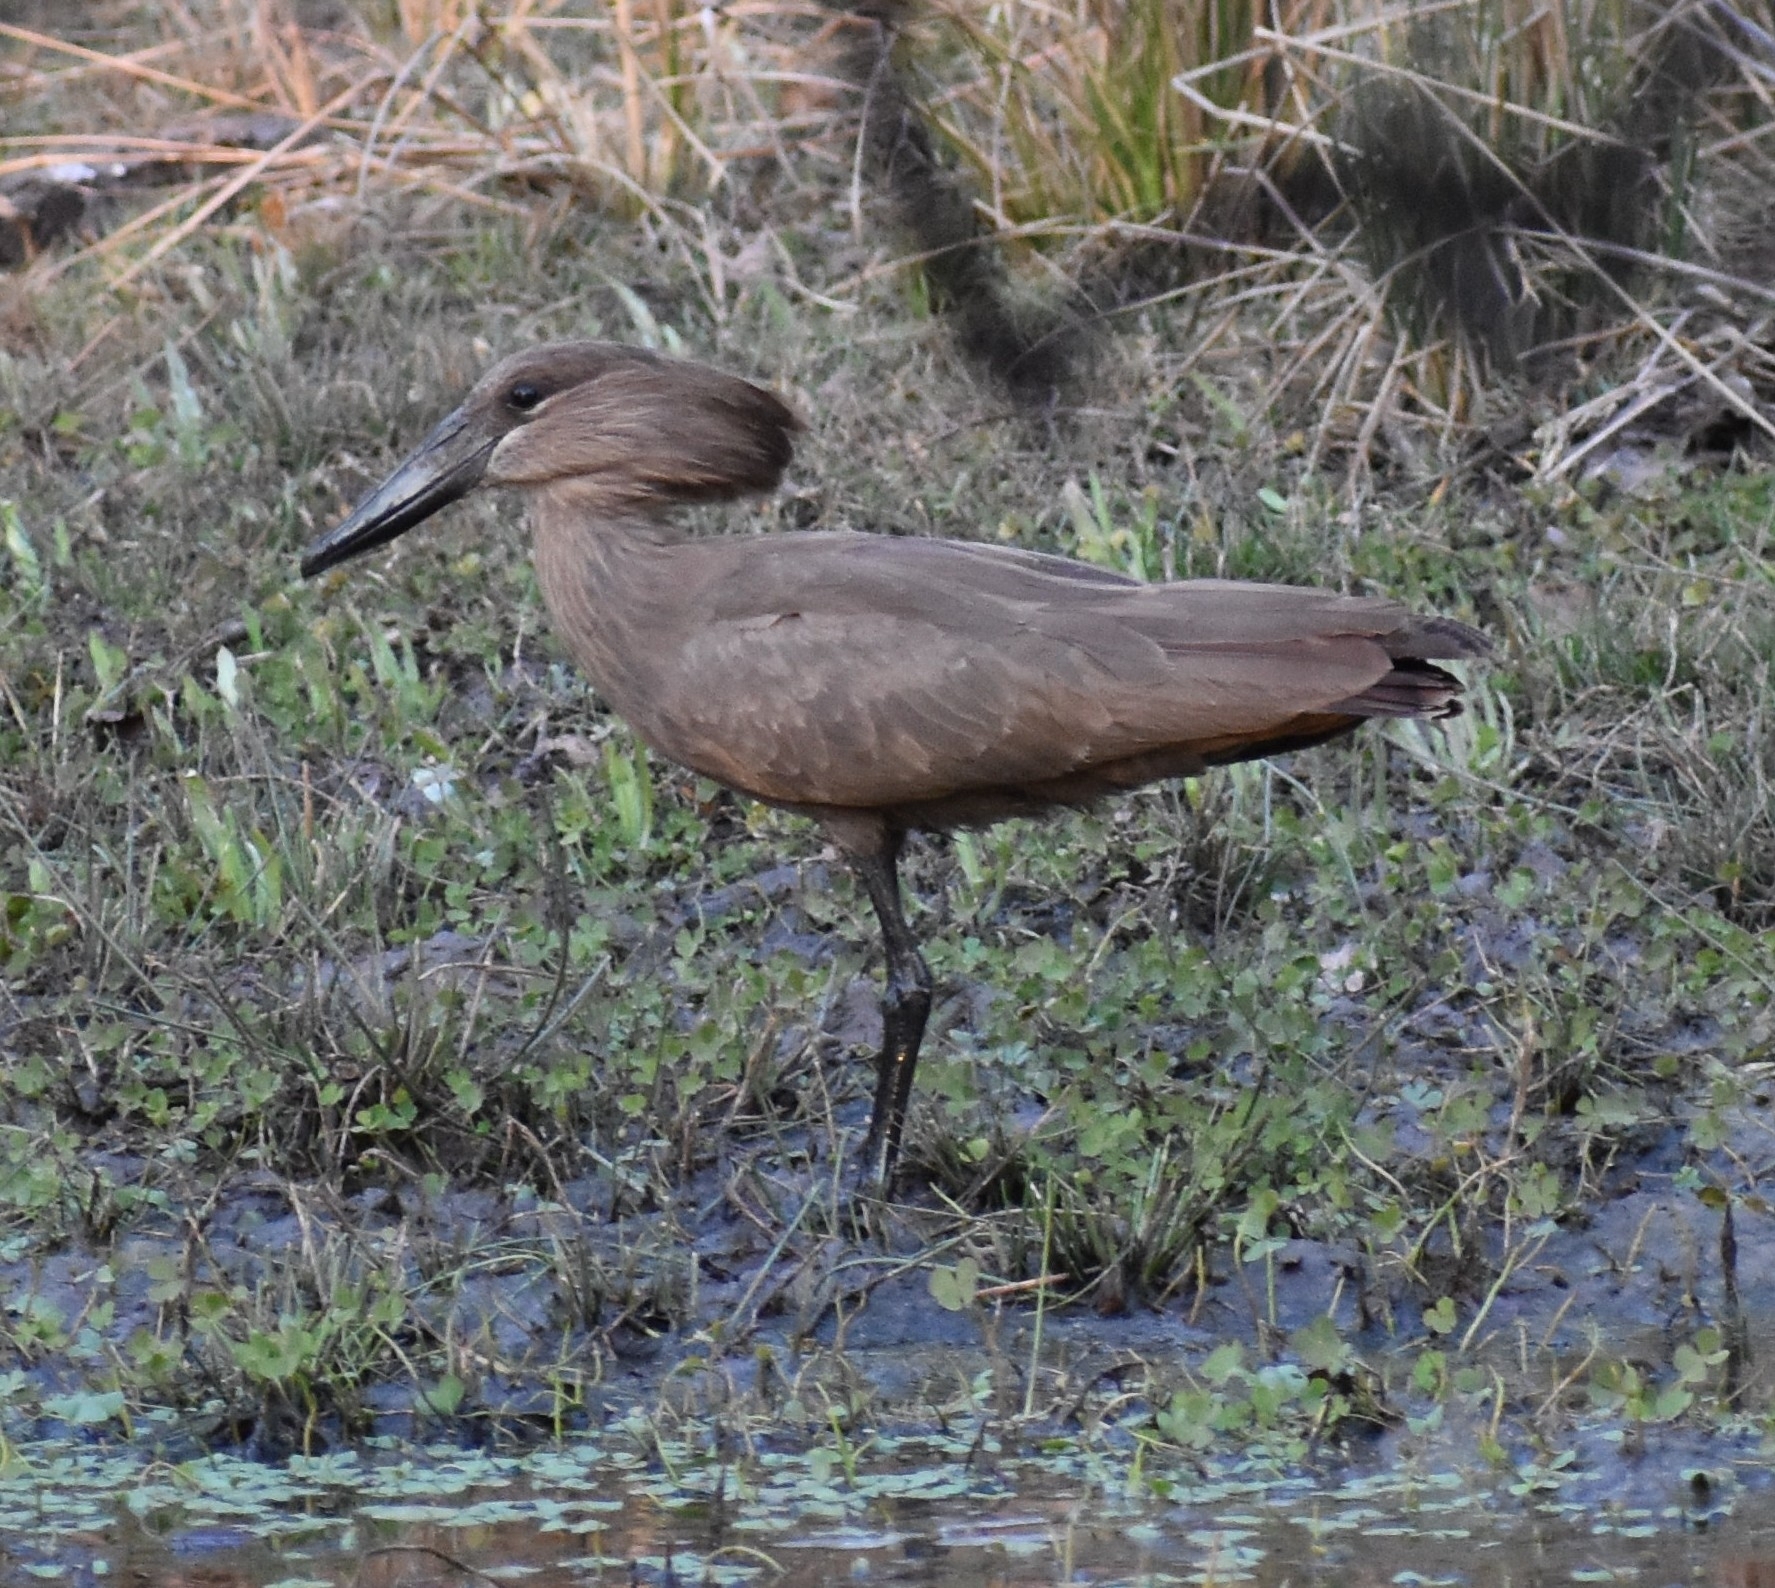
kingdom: Animalia
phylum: Chordata
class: Aves
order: Pelecaniformes
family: Scopidae
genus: Scopus
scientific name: Scopus umbretta
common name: Hamerkop
